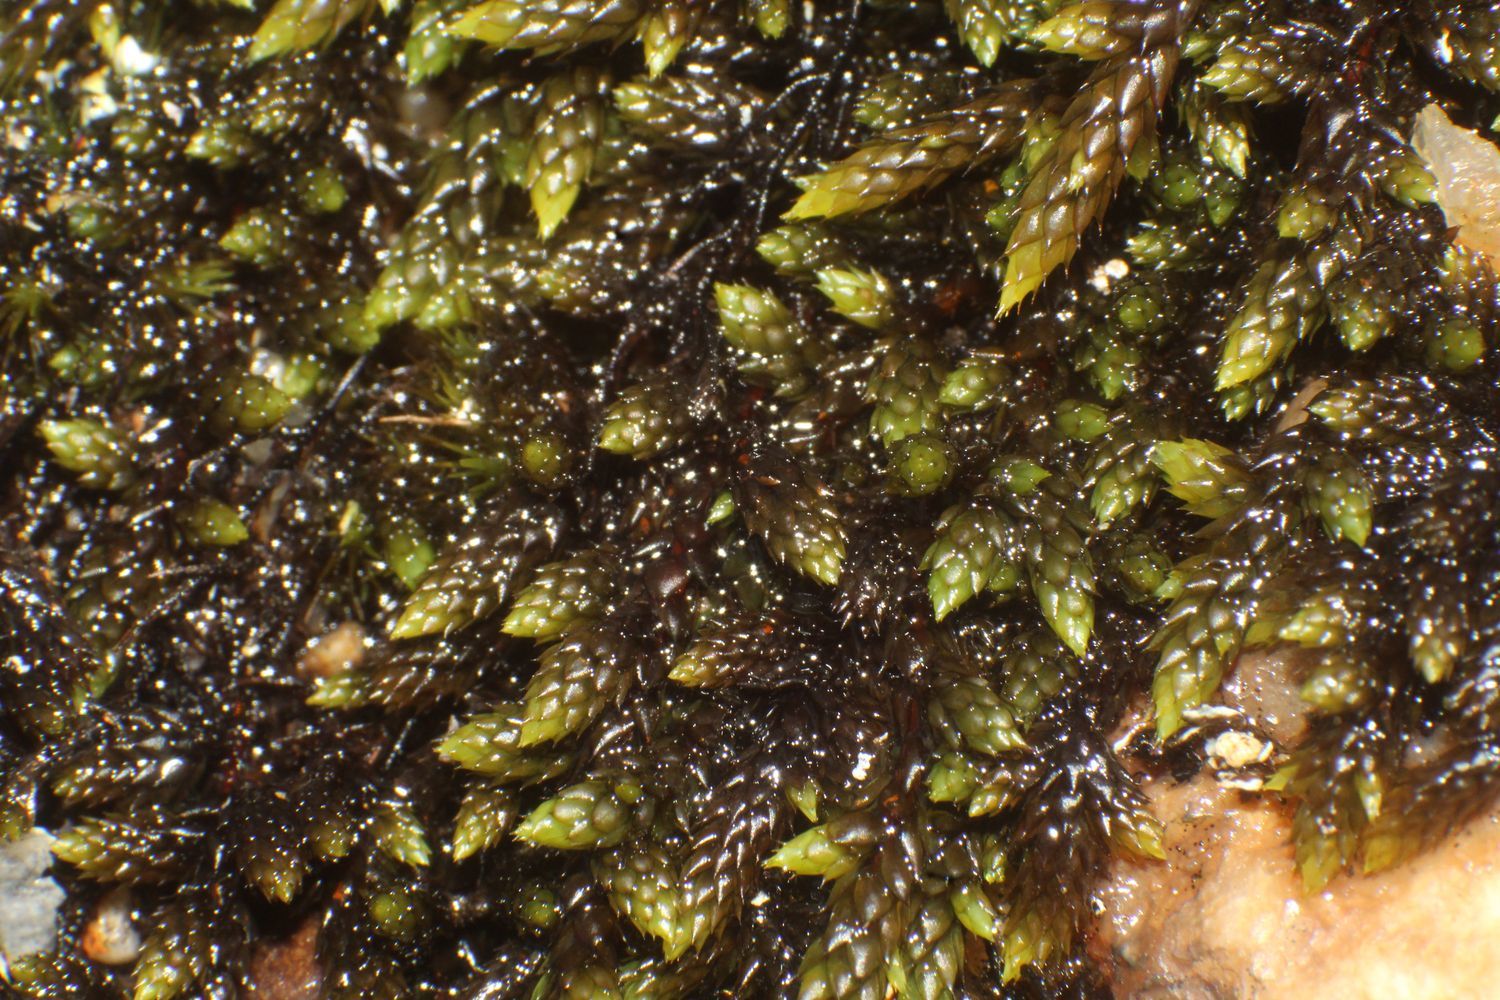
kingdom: Plantae
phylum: Bryophyta
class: Bryopsida
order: Hedwigiales
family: Hedwigiaceae
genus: Rhacocarpus
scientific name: Rhacocarpus purpurascens
